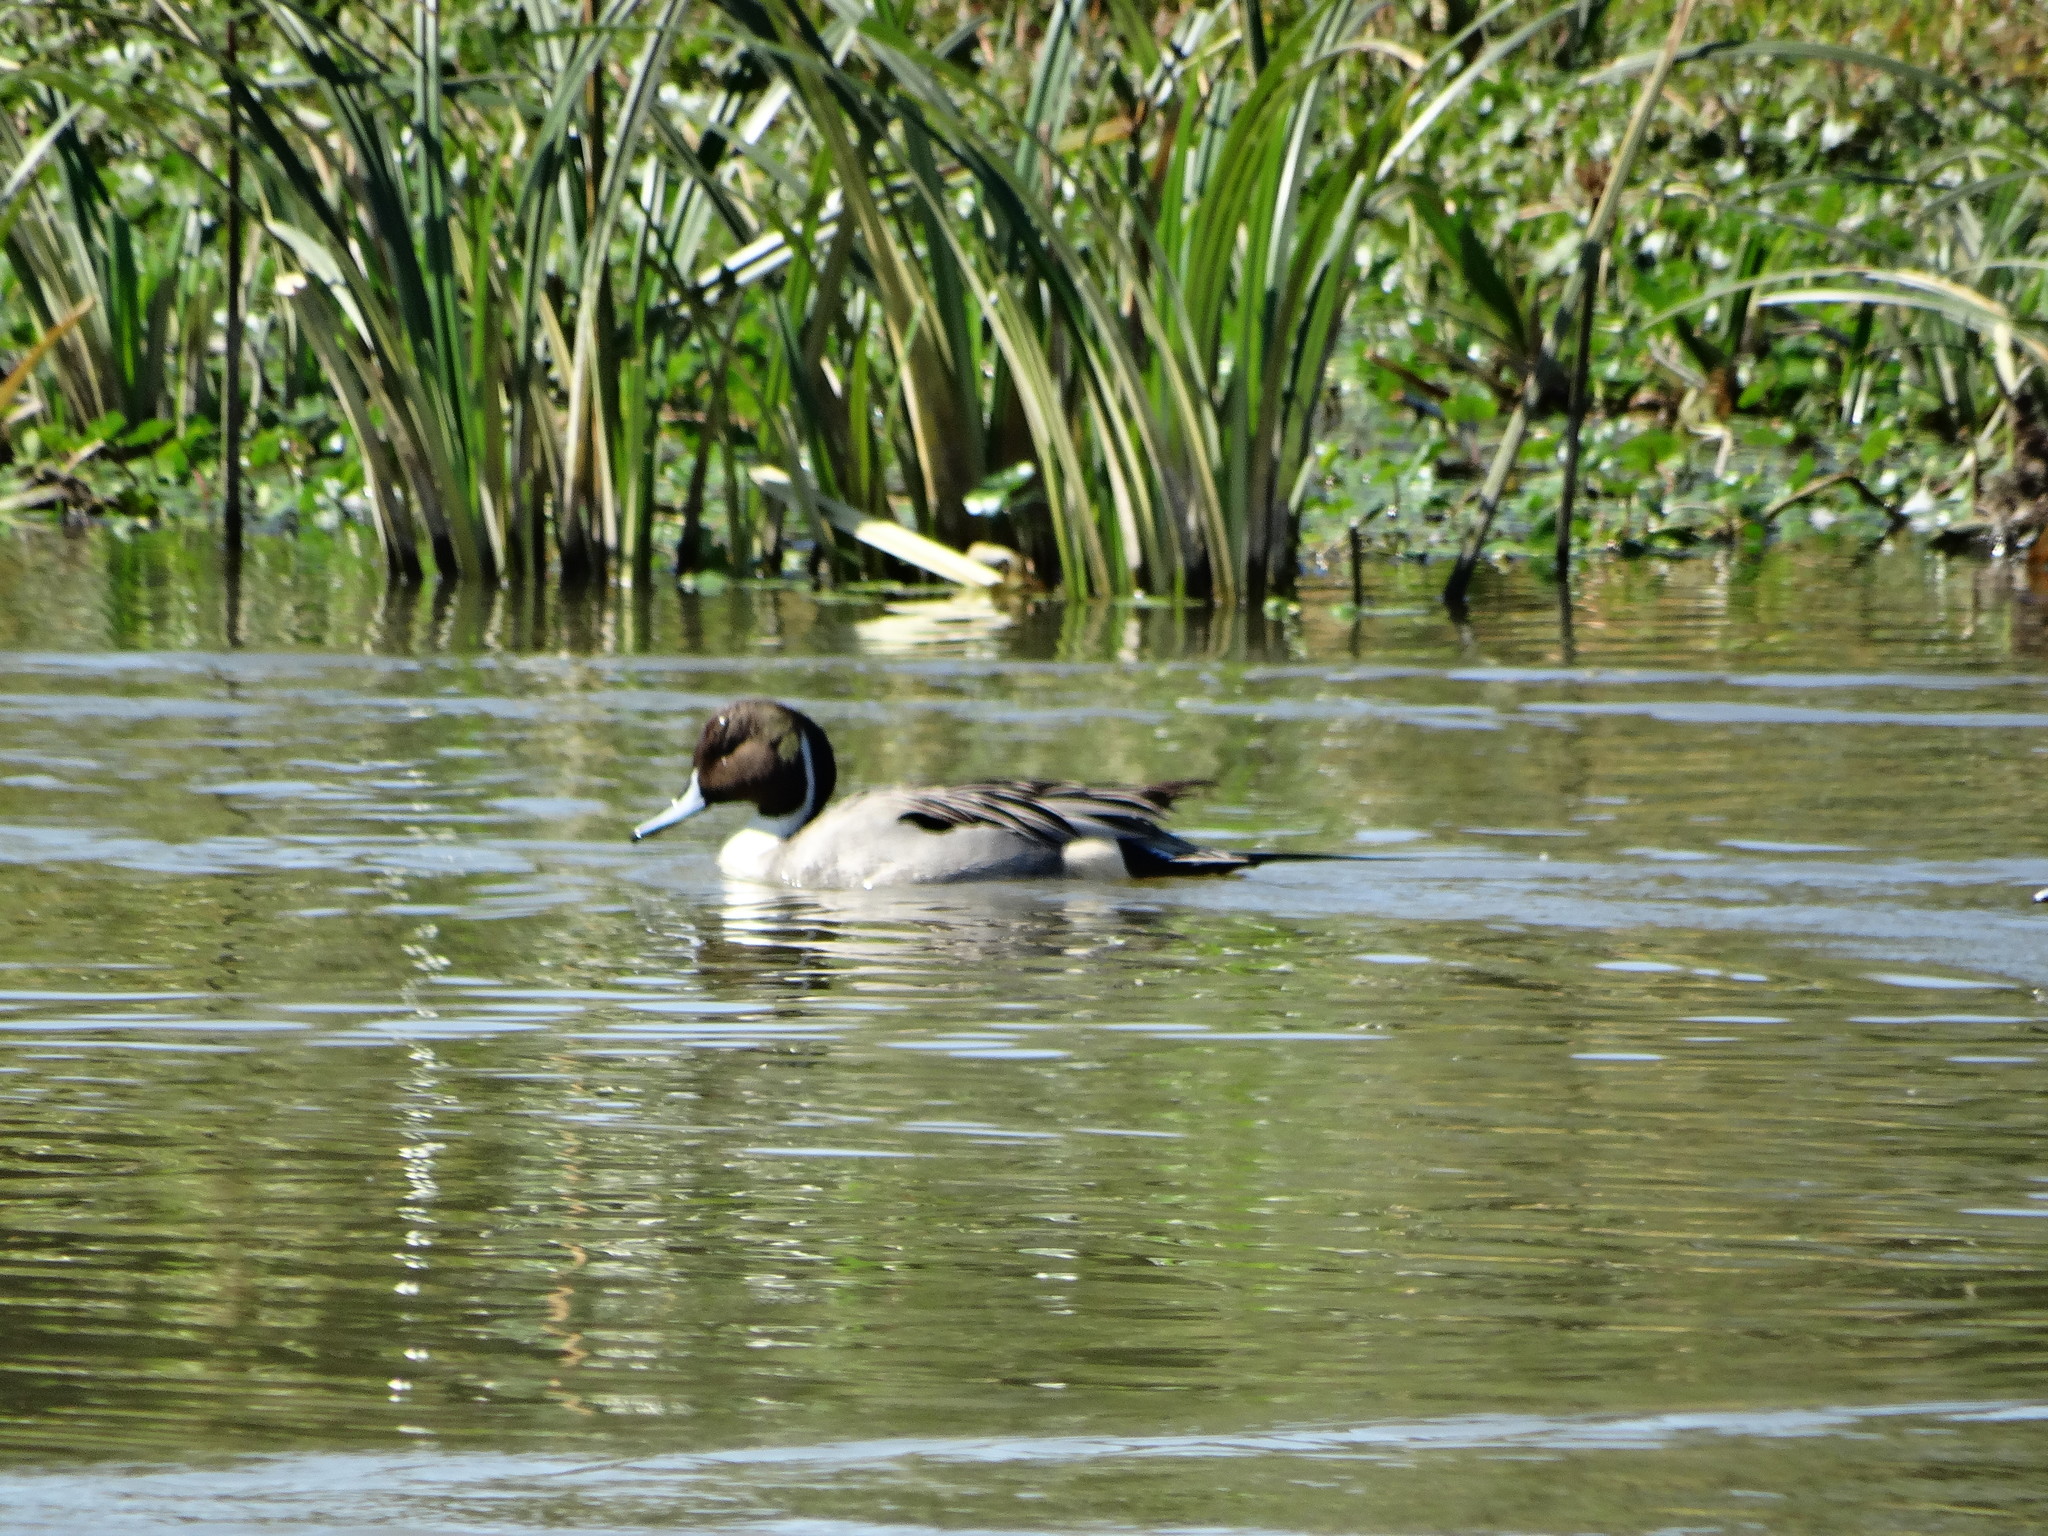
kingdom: Animalia
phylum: Chordata
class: Aves
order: Anseriformes
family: Anatidae
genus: Anas
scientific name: Anas acuta
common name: Northern pintail
